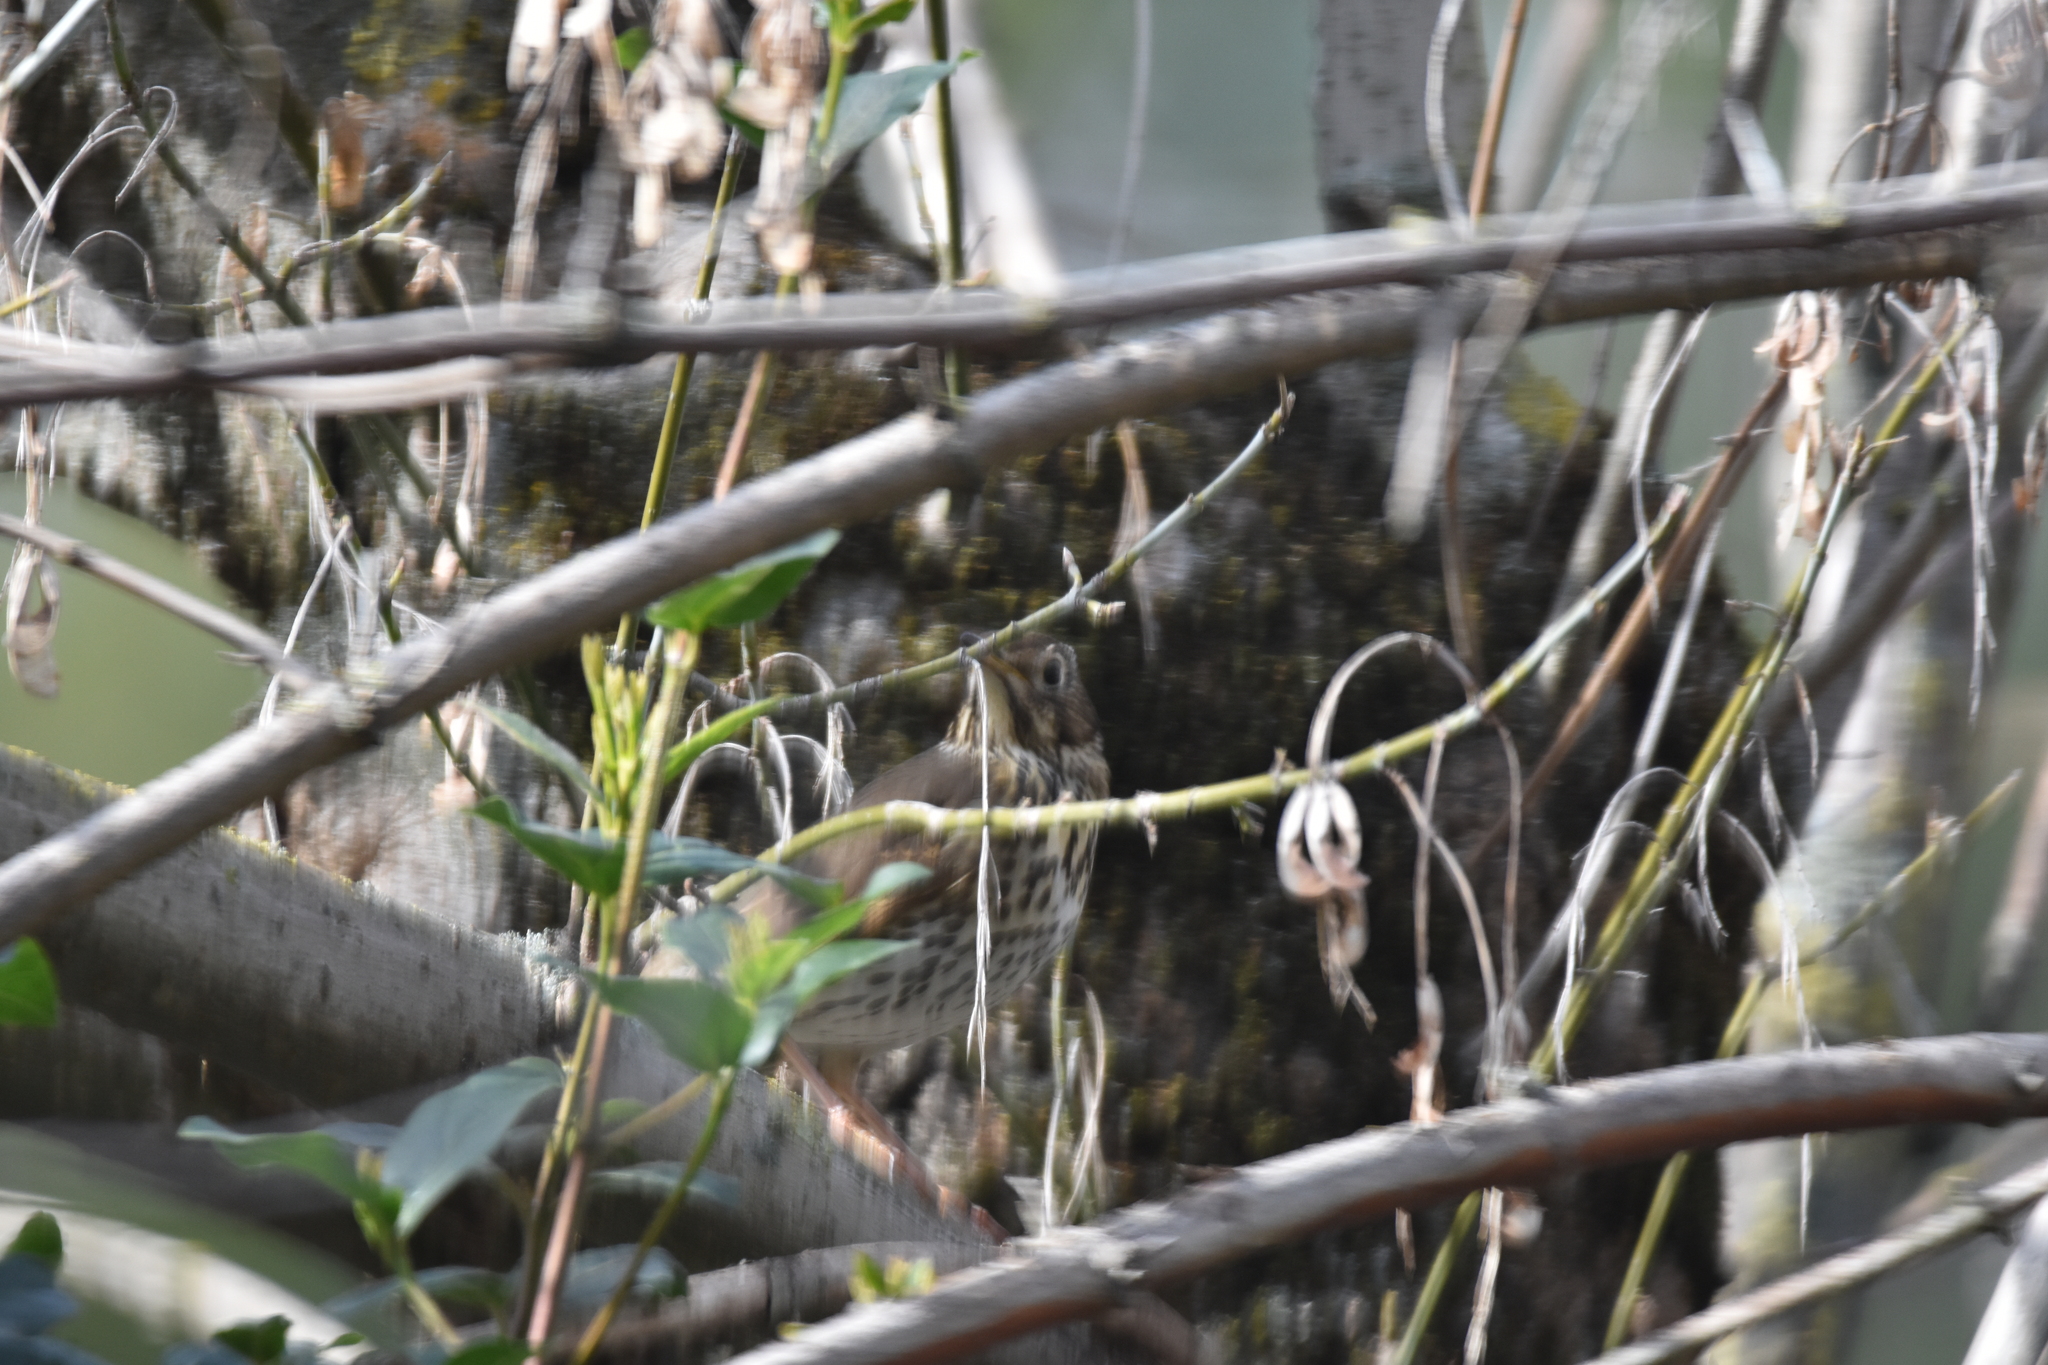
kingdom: Animalia
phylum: Chordata
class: Aves
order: Passeriformes
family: Turdidae
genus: Turdus
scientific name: Turdus philomelos
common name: Song thrush
